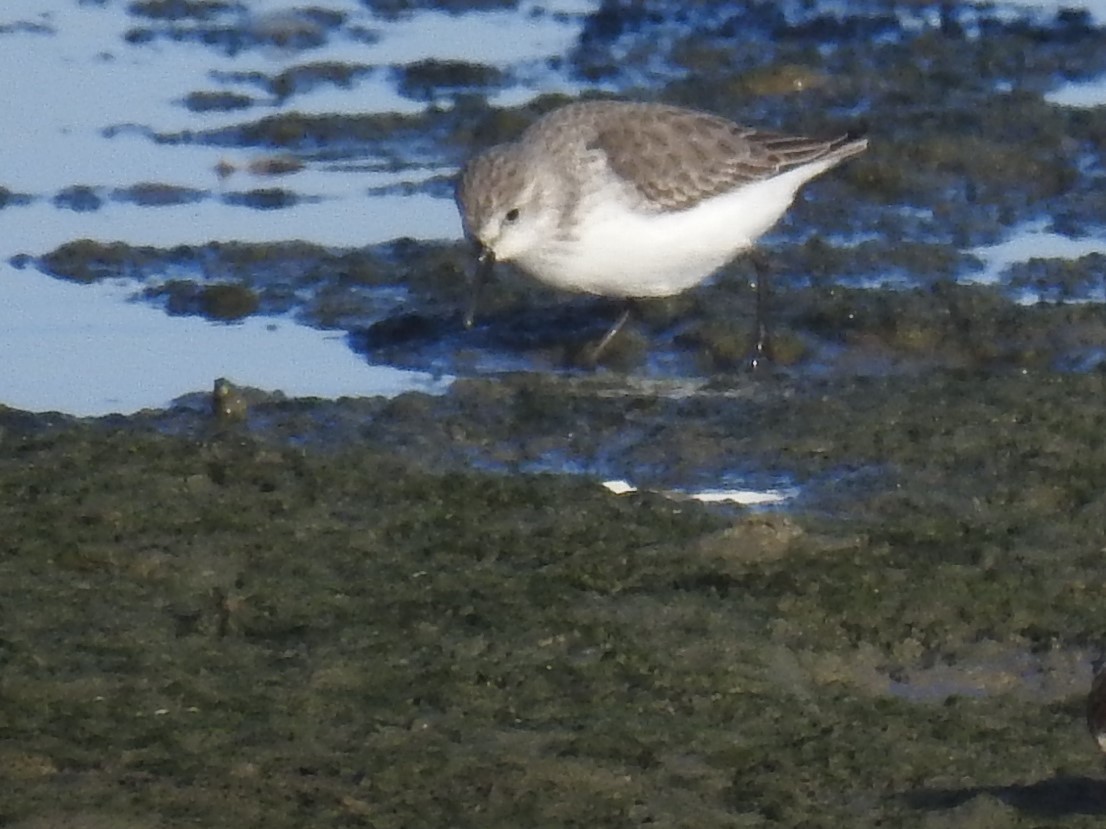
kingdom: Animalia
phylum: Chordata
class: Aves
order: Charadriiformes
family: Scolopacidae
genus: Calidris
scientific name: Calidris mauri
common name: Western sandpiper
